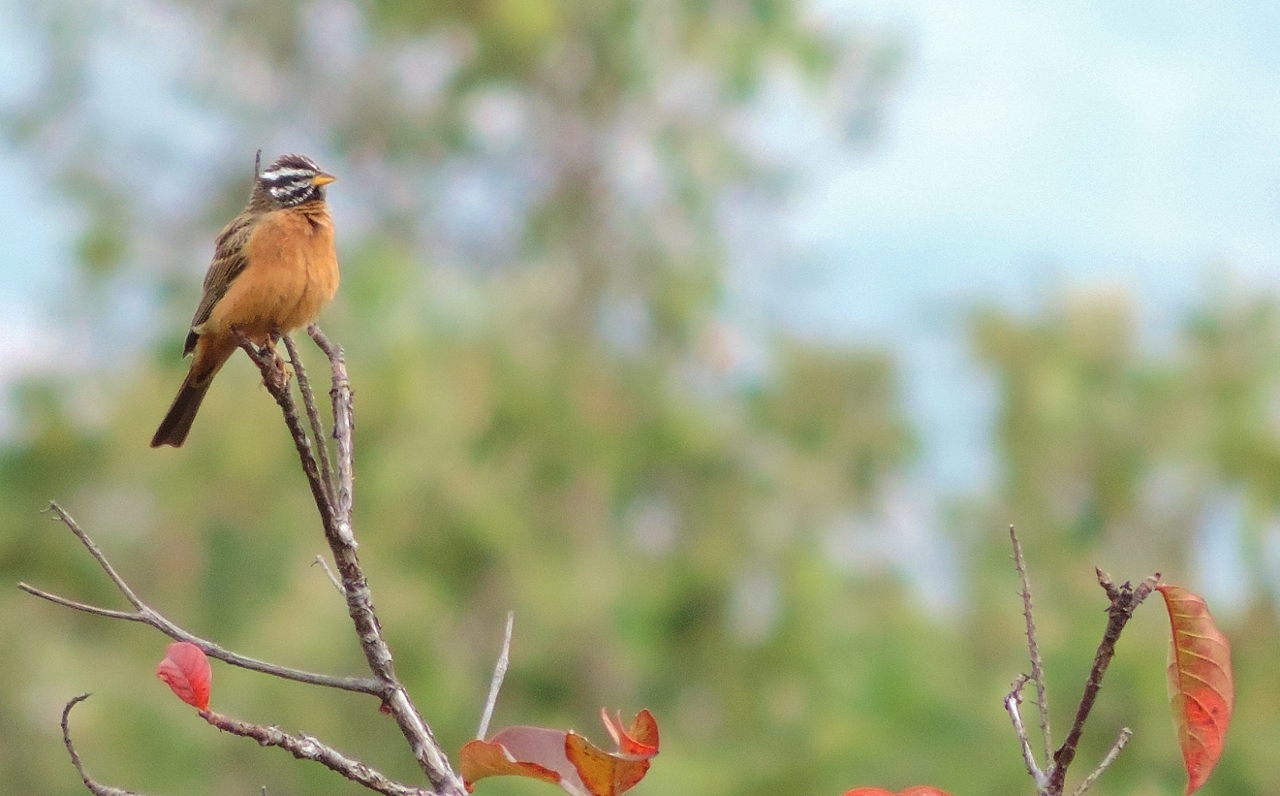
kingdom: Animalia
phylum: Chordata
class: Aves
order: Passeriformes
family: Emberizidae
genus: Emberiza
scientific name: Emberiza tahapisi
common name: Cinnamon-breasted bunting
